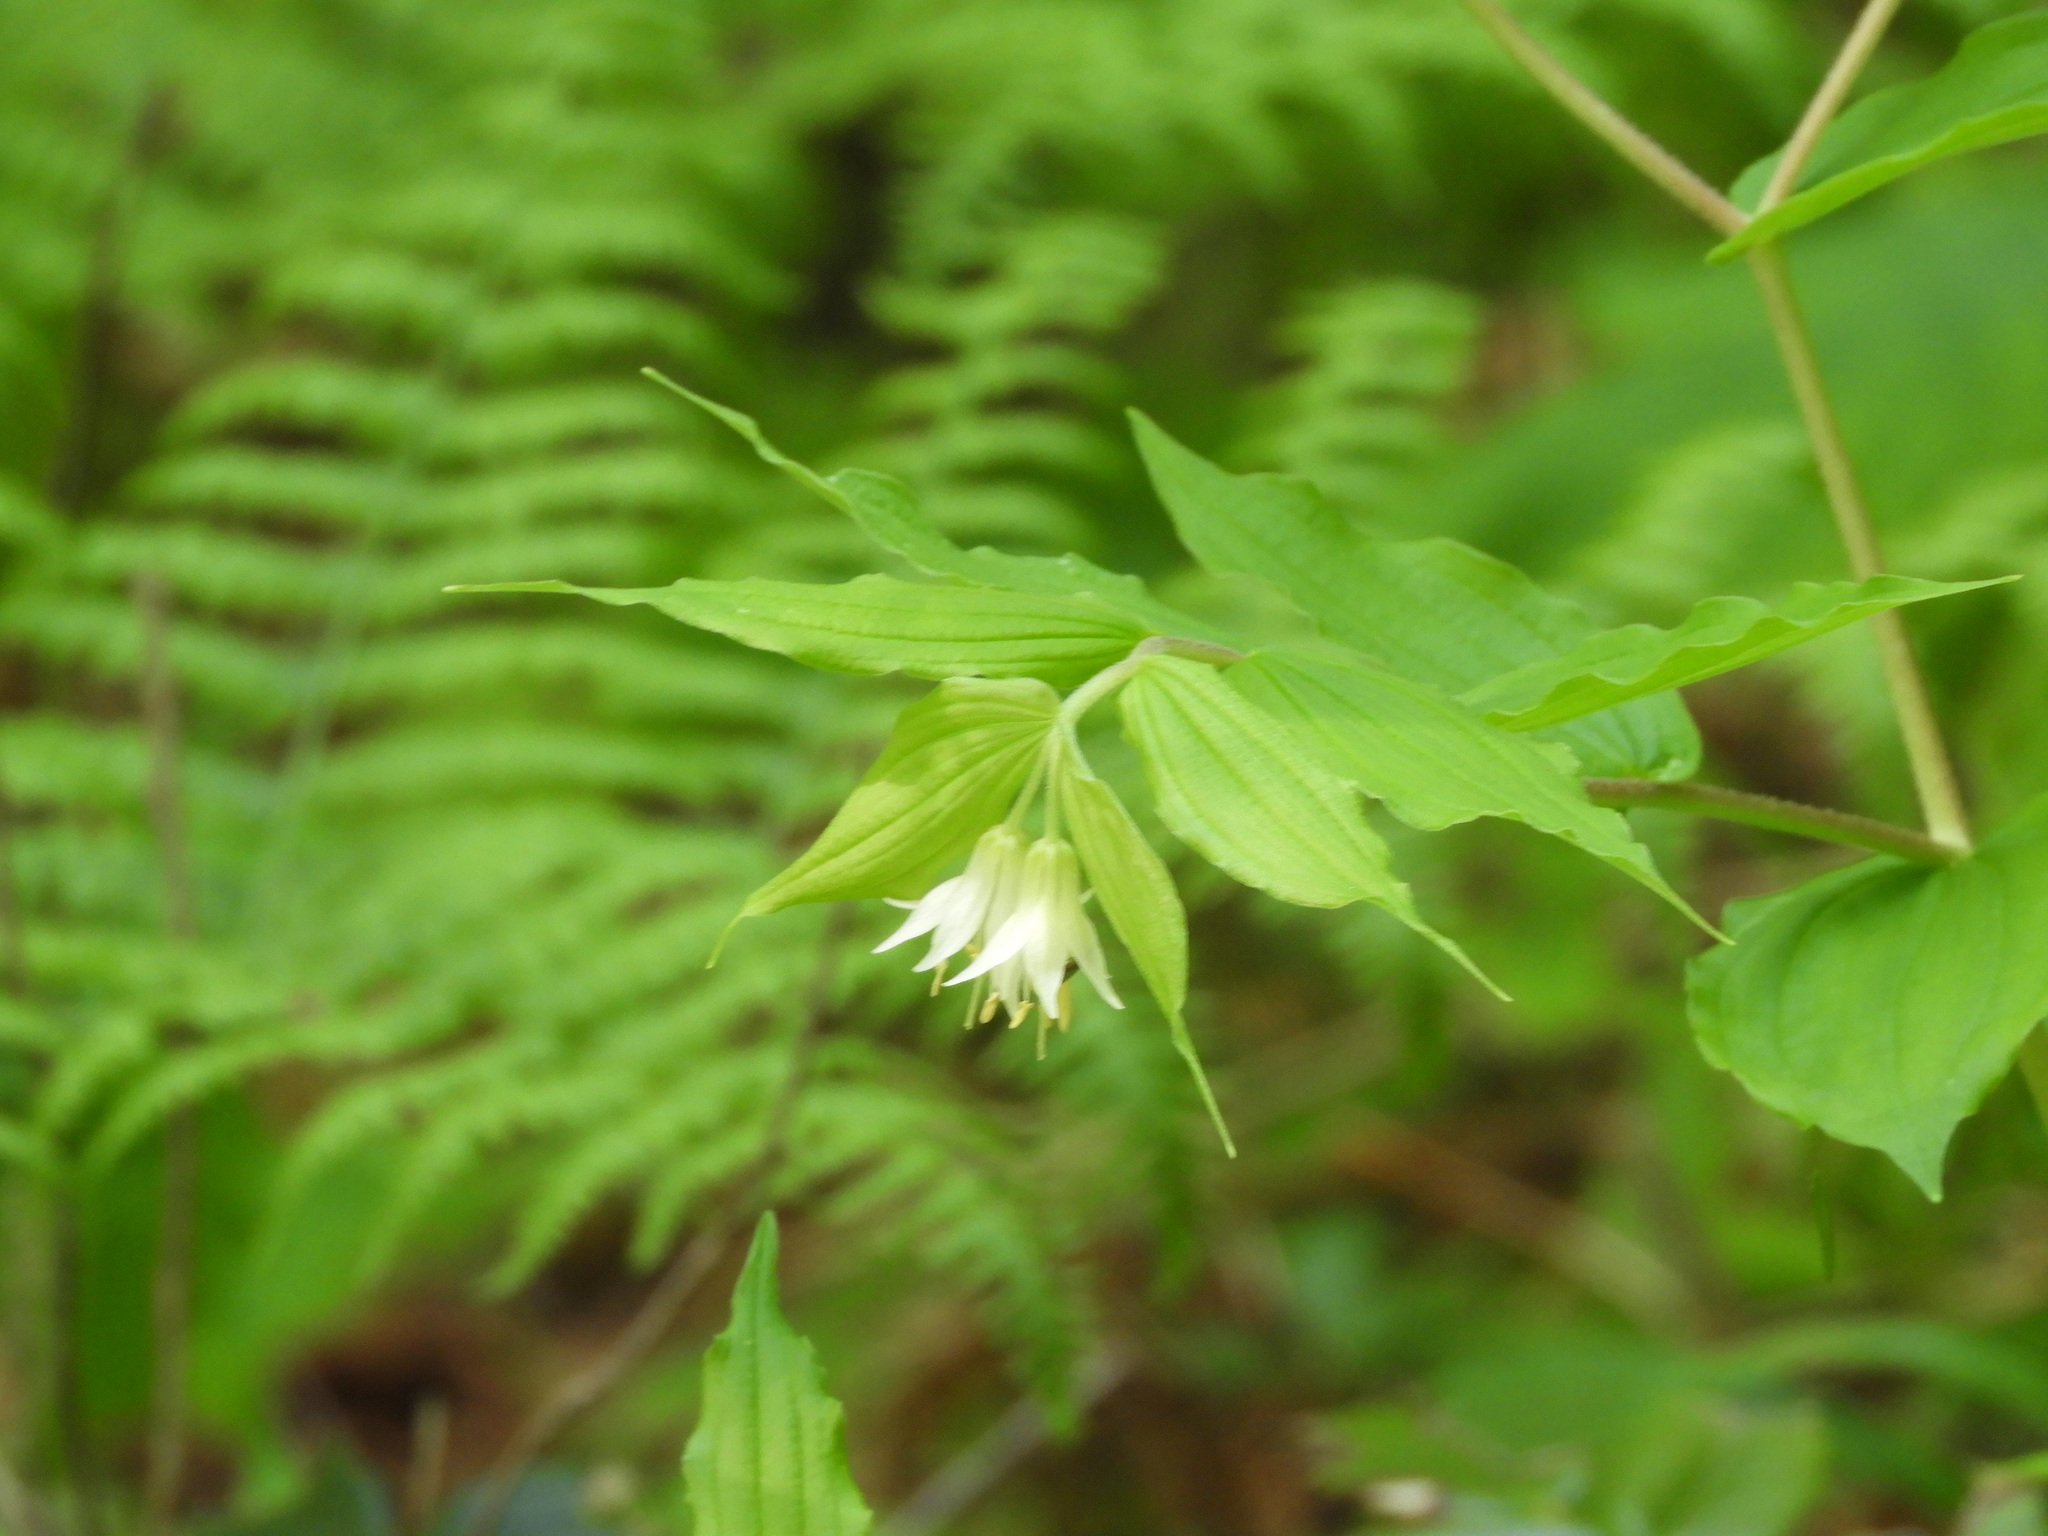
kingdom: Plantae
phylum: Tracheophyta
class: Liliopsida
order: Liliales
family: Liliaceae
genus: Prosartes
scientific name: Prosartes hookeri
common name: Fairy-bells
